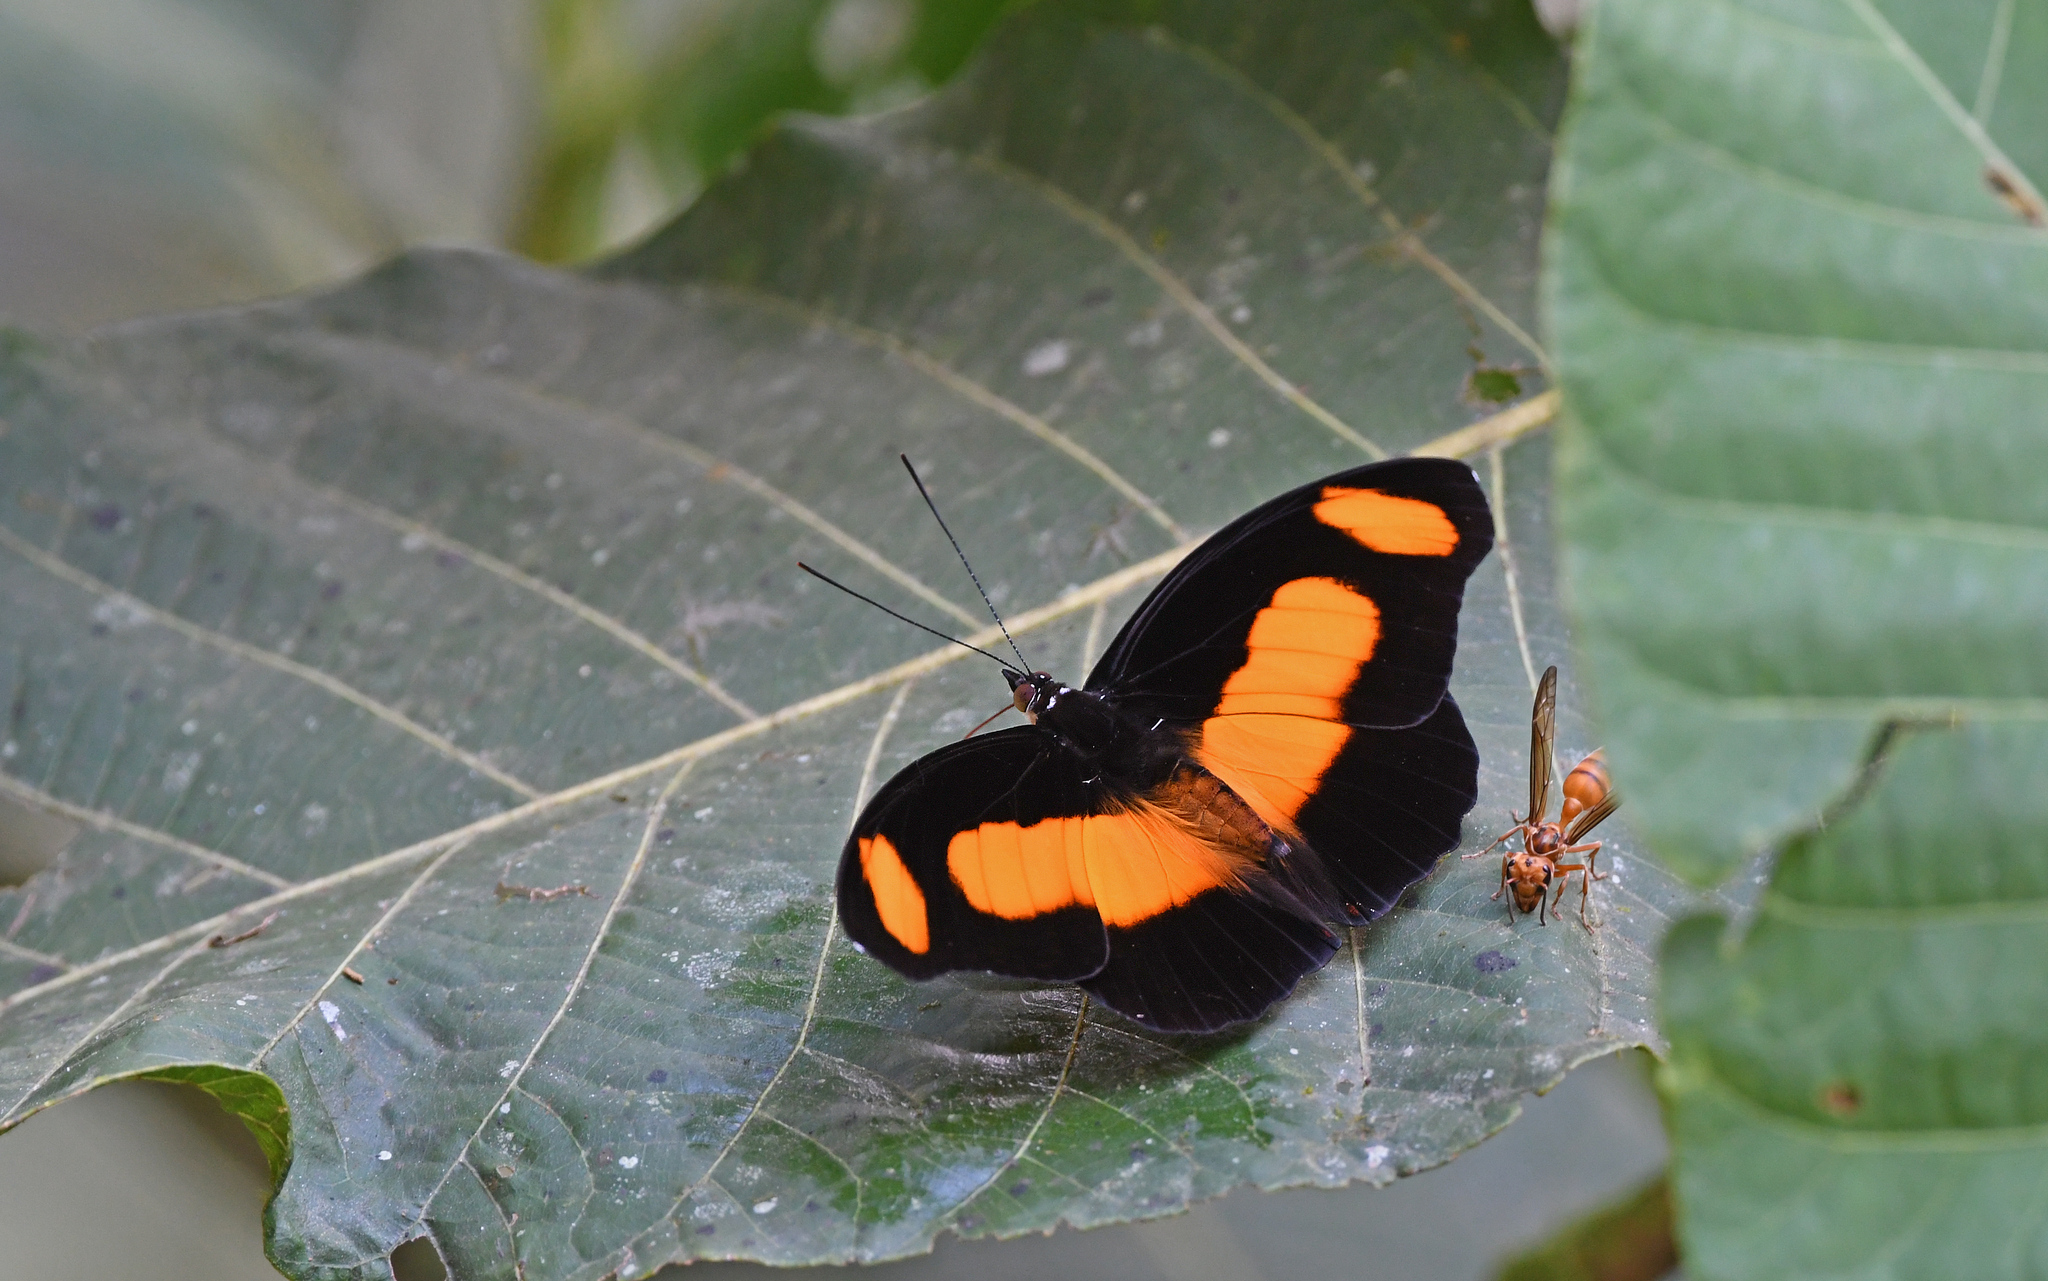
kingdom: Animalia
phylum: Arthropoda
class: Insecta
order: Lepidoptera
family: Nymphalidae
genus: Catonephele
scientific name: Catonephele chromis
